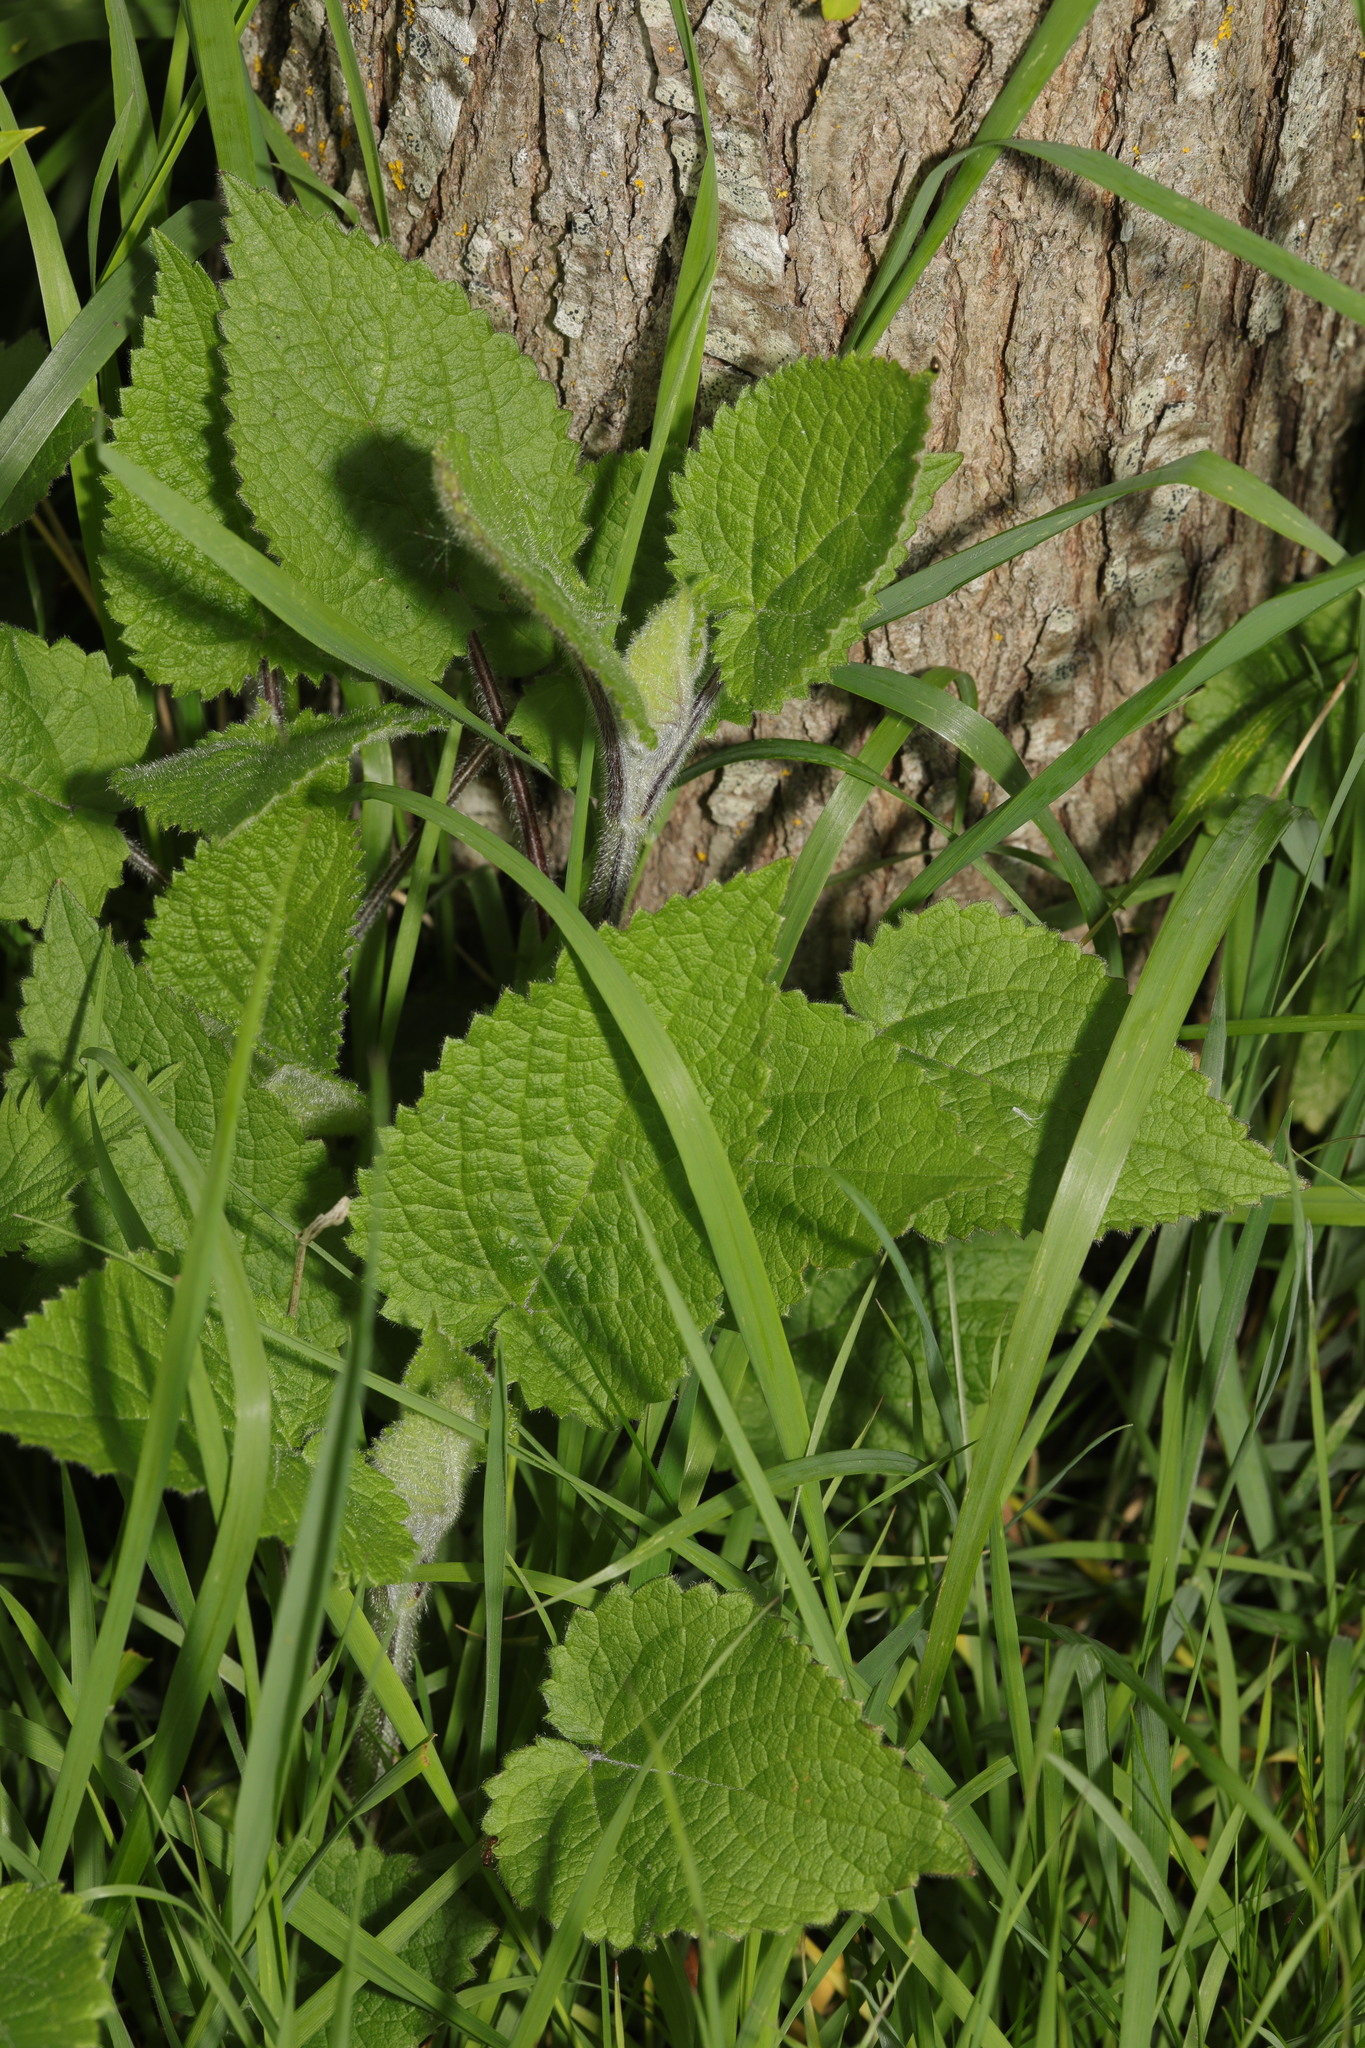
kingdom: Plantae
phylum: Tracheophyta
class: Magnoliopsida
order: Lamiales
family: Lamiaceae
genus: Stachys
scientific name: Stachys sylvatica
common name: Hedge woundwort
